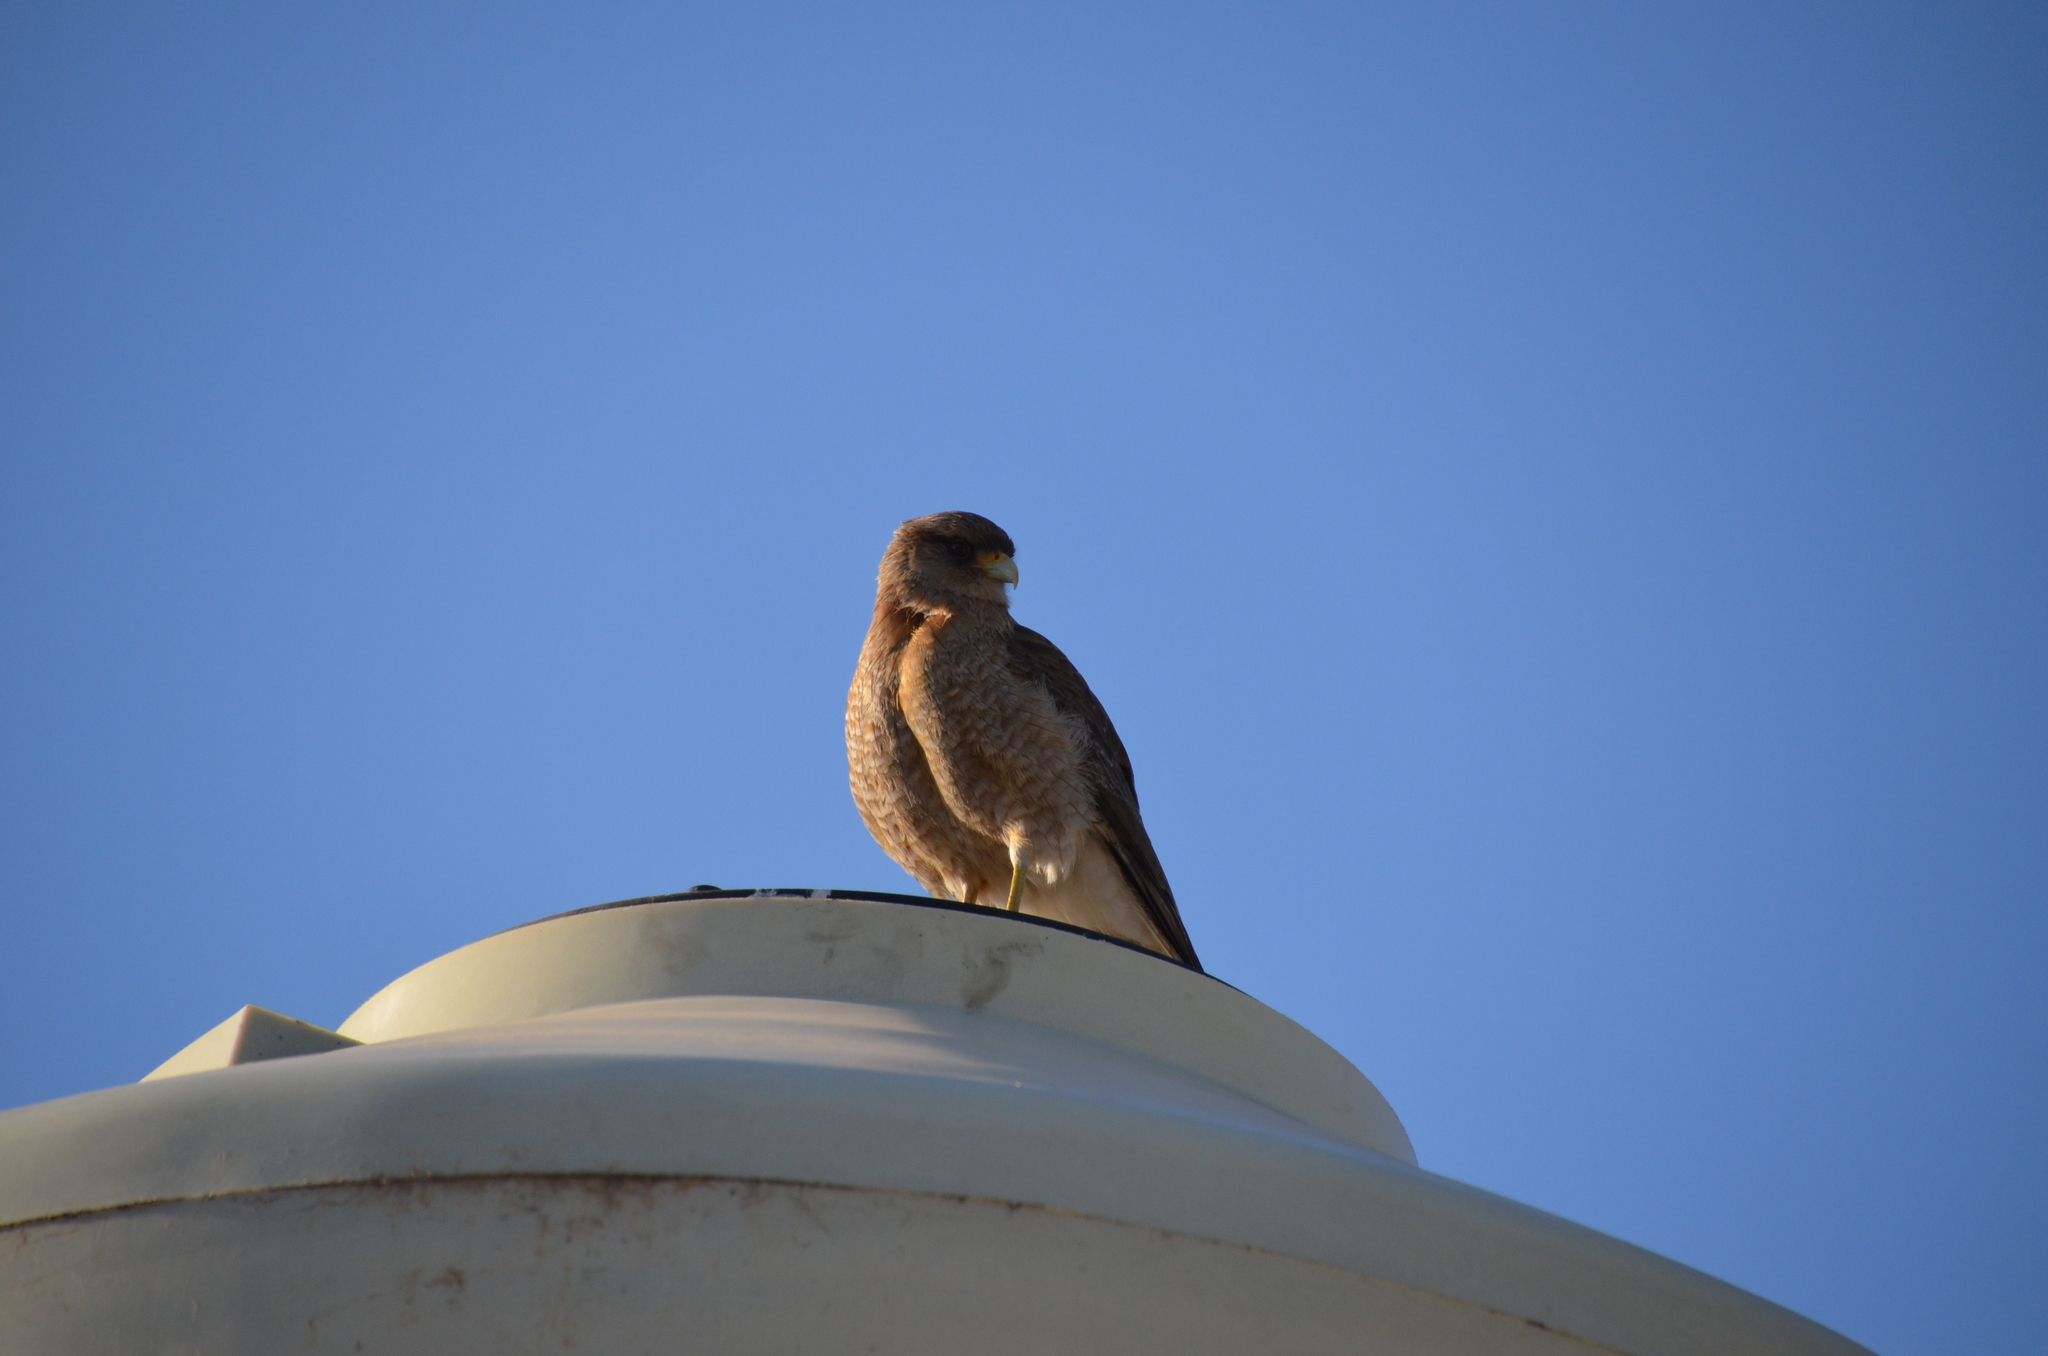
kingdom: Animalia
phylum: Chordata
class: Aves
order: Falconiformes
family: Falconidae
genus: Daptrius
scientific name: Daptrius
